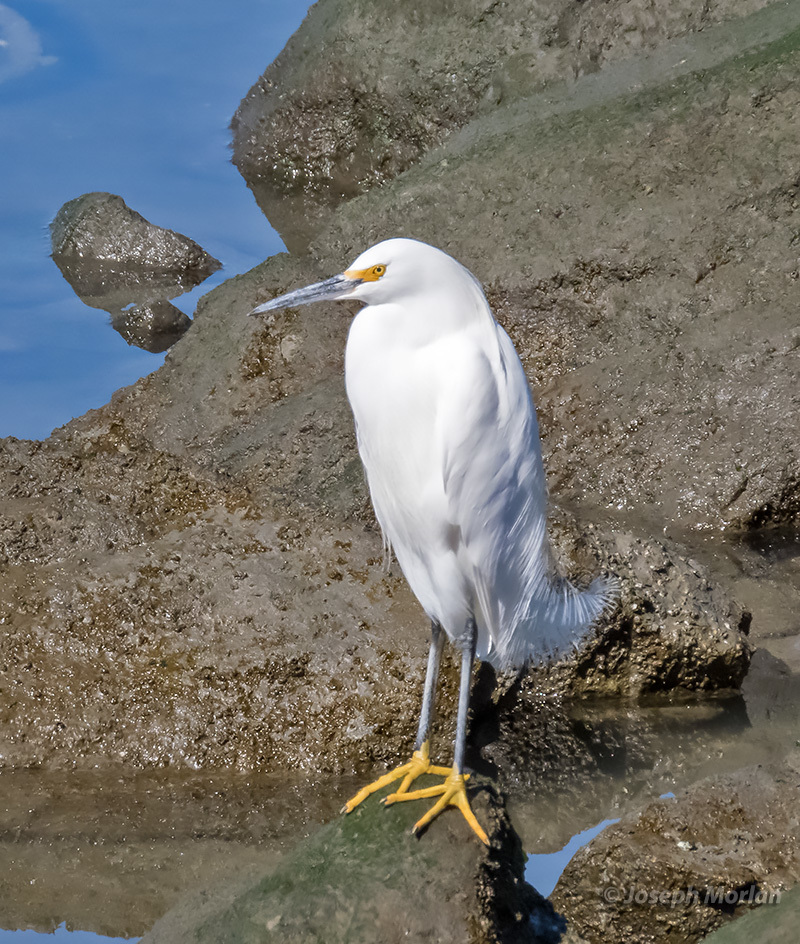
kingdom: Animalia
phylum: Chordata
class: Aves
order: Pelecaniformes
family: Ardeidae
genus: Egretta
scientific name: Egretta thula
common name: Snowy egret
